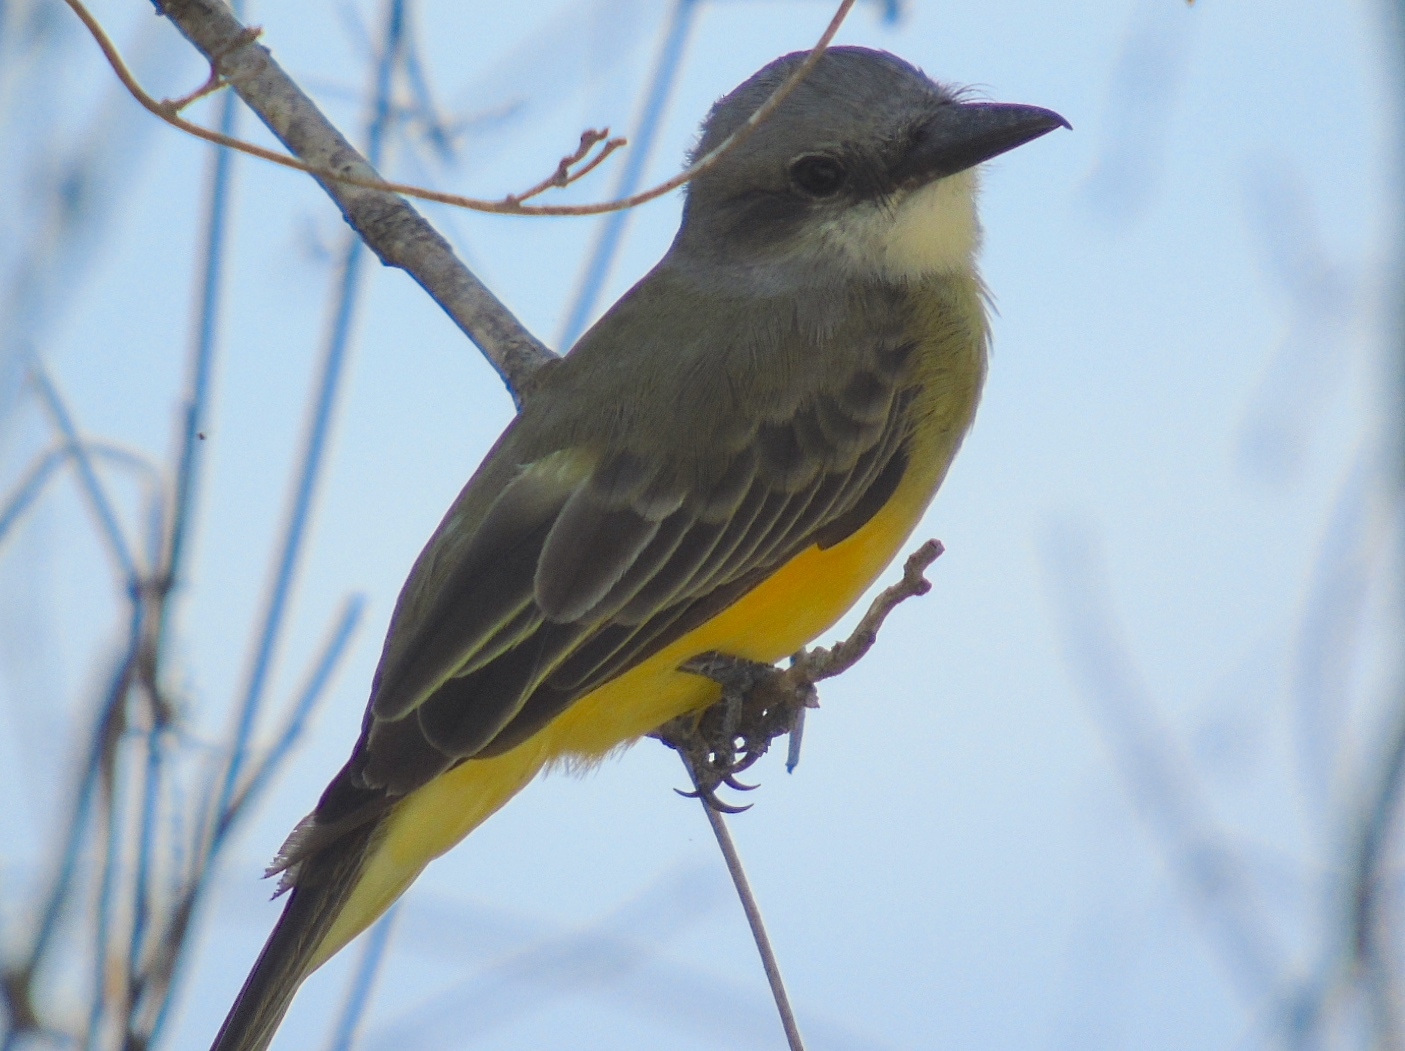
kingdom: Animalia
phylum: Chordata
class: Aves
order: Passeriformes
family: Tyrannidae
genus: Tyrannus
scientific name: Tyrannus melancholicus
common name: Tropical kingbird
